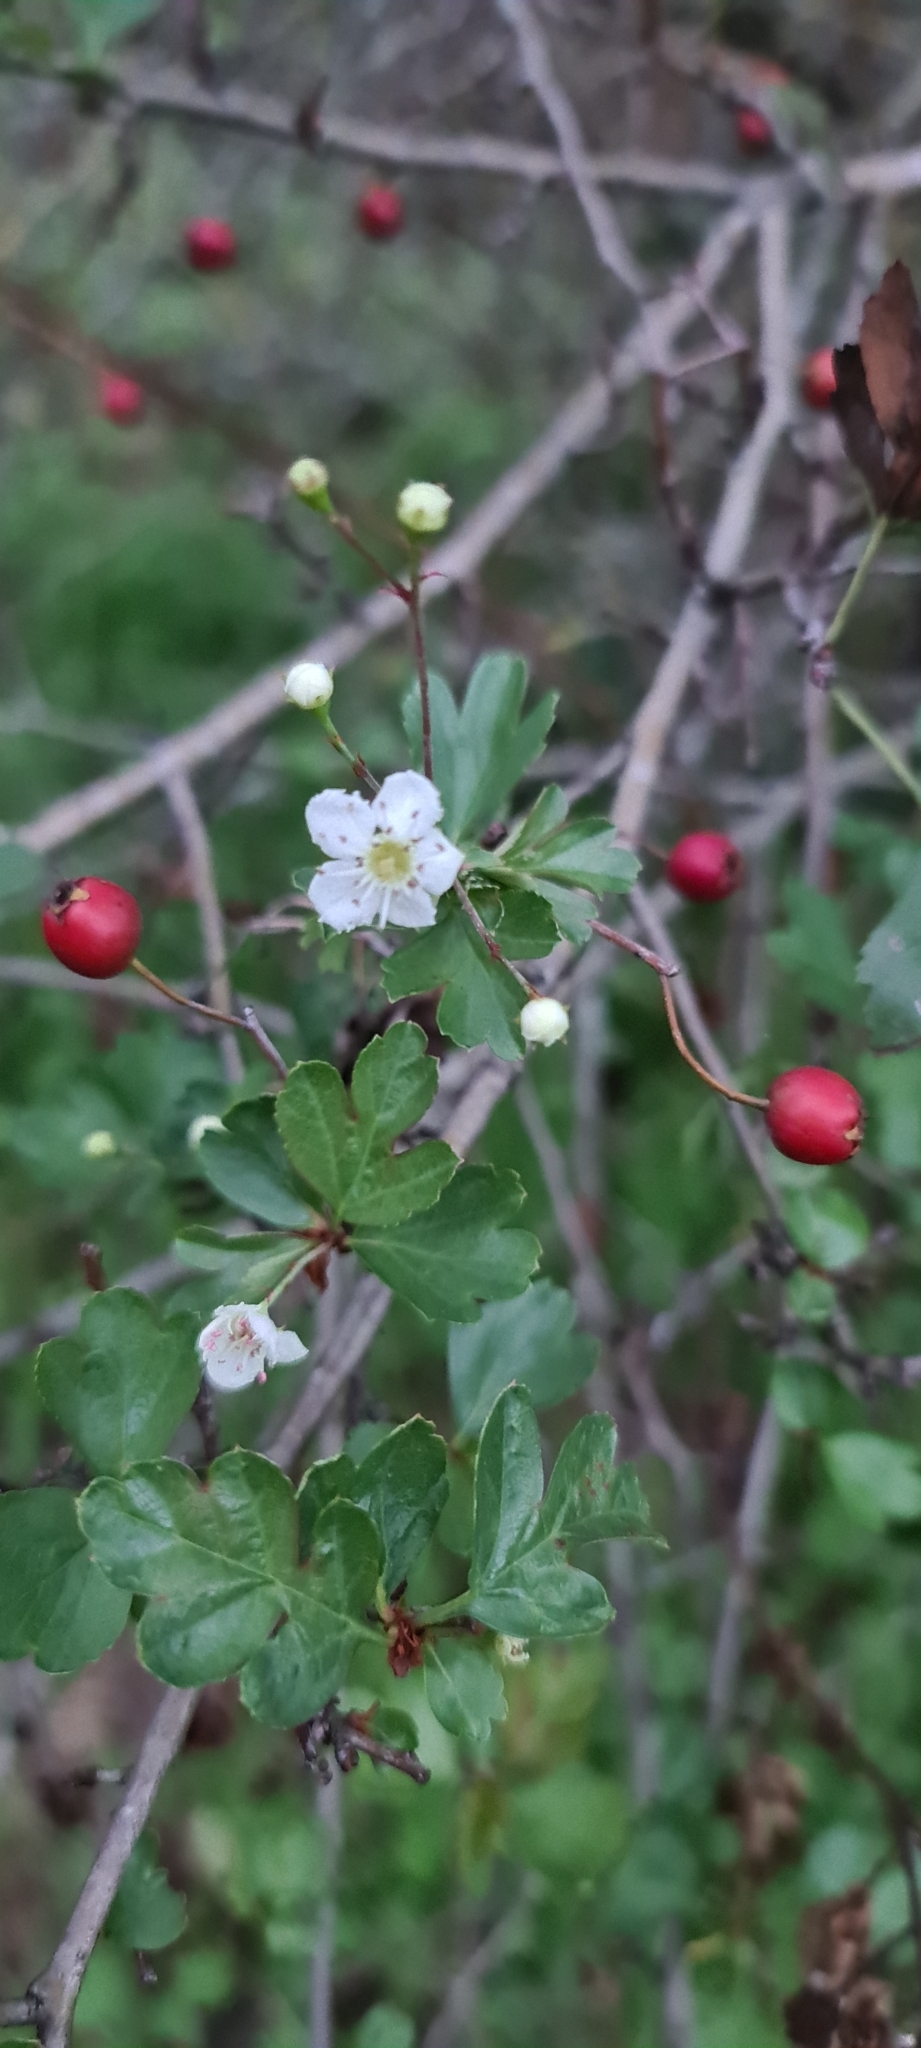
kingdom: Plantae
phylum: Tracheophyta
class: Magnoliopsida
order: Rosales
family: Rosaceae
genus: Crataegus
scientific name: Crataegus monogyna
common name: Hawthorn
